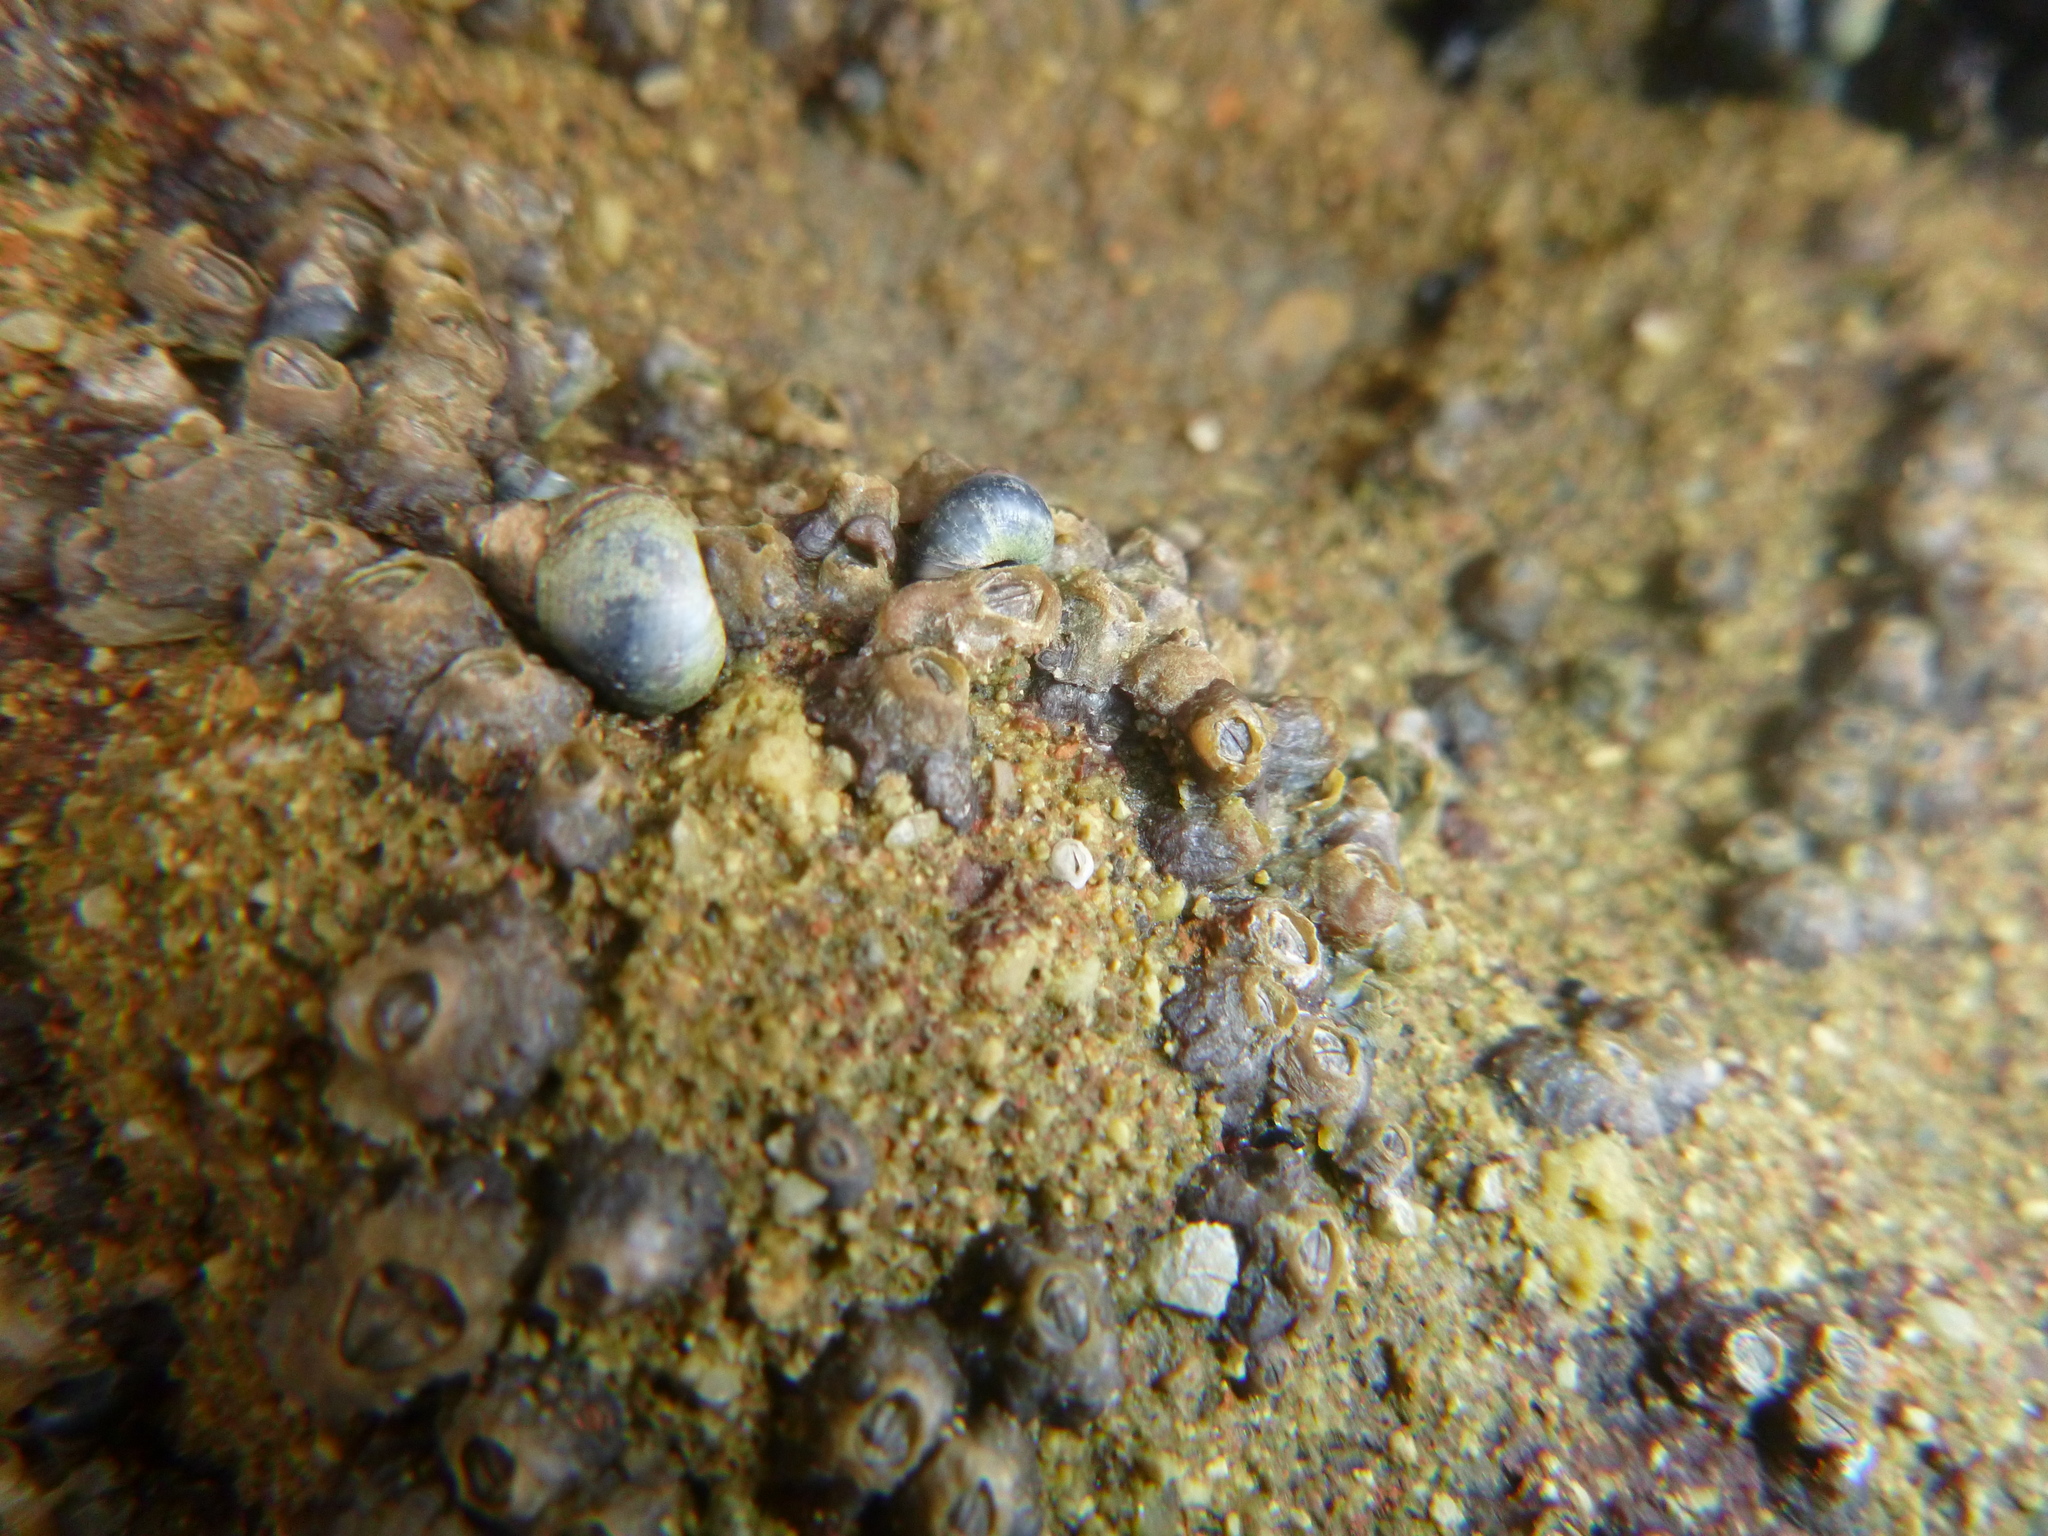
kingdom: Animalia
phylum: Arthropoda
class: Maxillopoda
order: Sessilia
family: Chthamalidae
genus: Chamaesipho
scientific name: Chamaesipho columna
